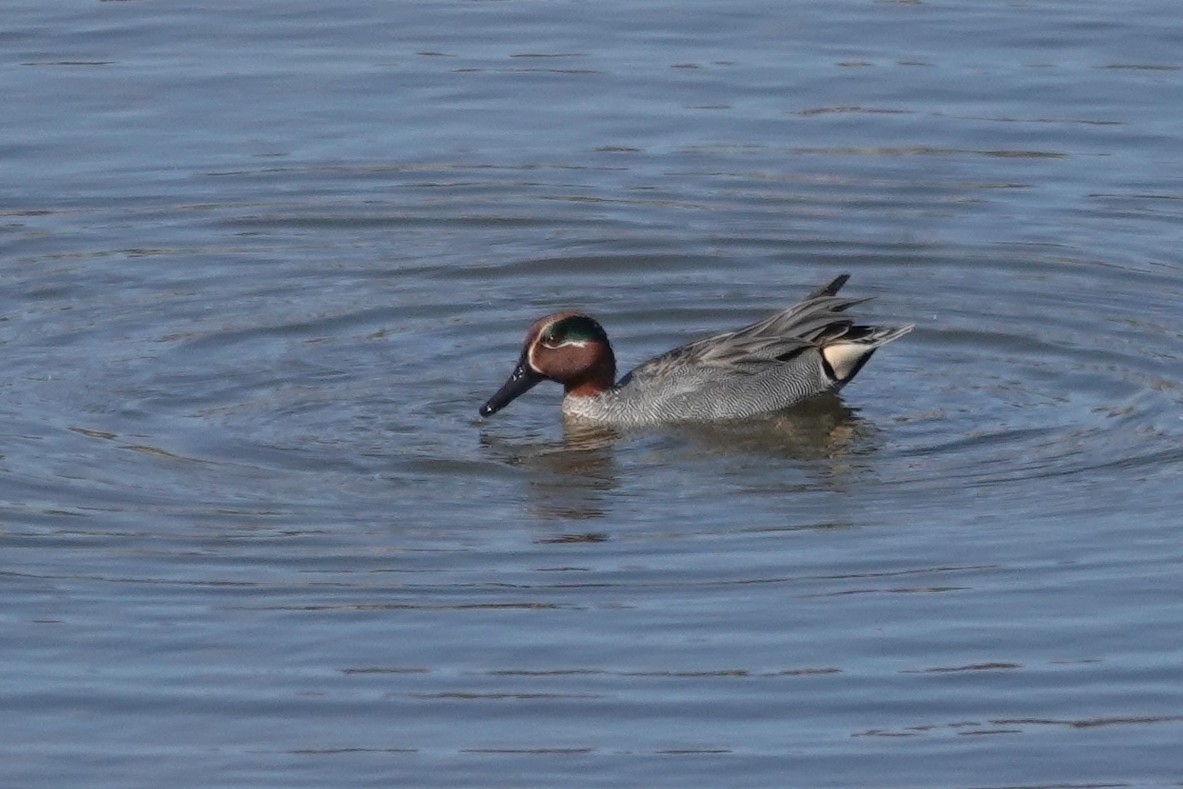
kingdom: Animalia
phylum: Chordata
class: Aves
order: Anseriformes
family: Anatidae
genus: Anas
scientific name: Anas crecca
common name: Eurasian teal
